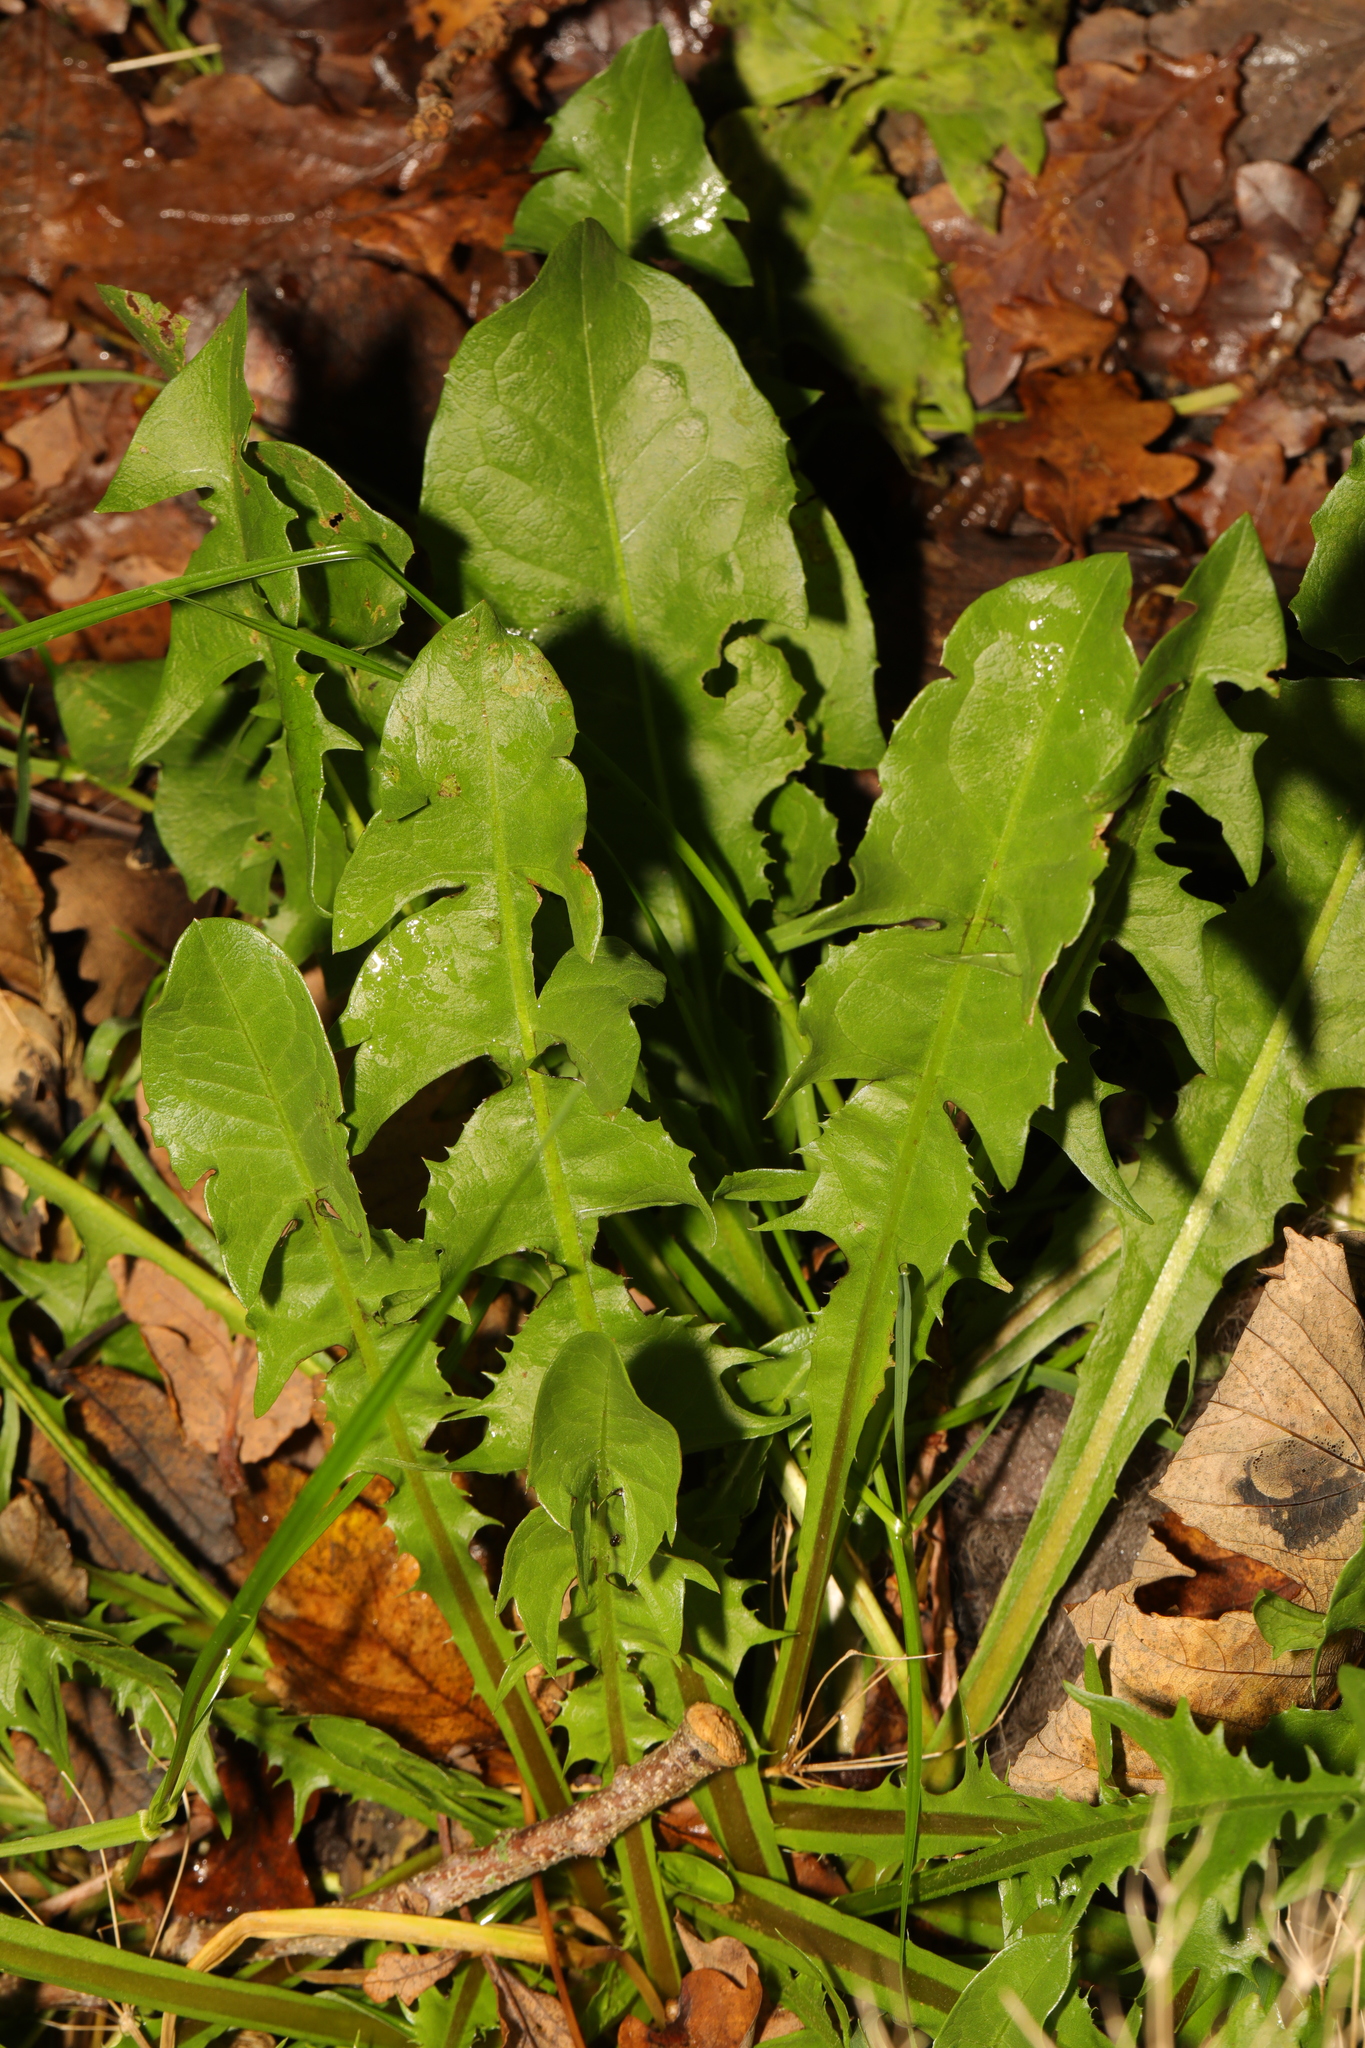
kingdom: Plantae
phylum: Tracheophyta
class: Magnoliopsida
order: Asterales
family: Asteraceae
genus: Taraxacum
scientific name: Taraxacum officinale
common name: Common dandelion
